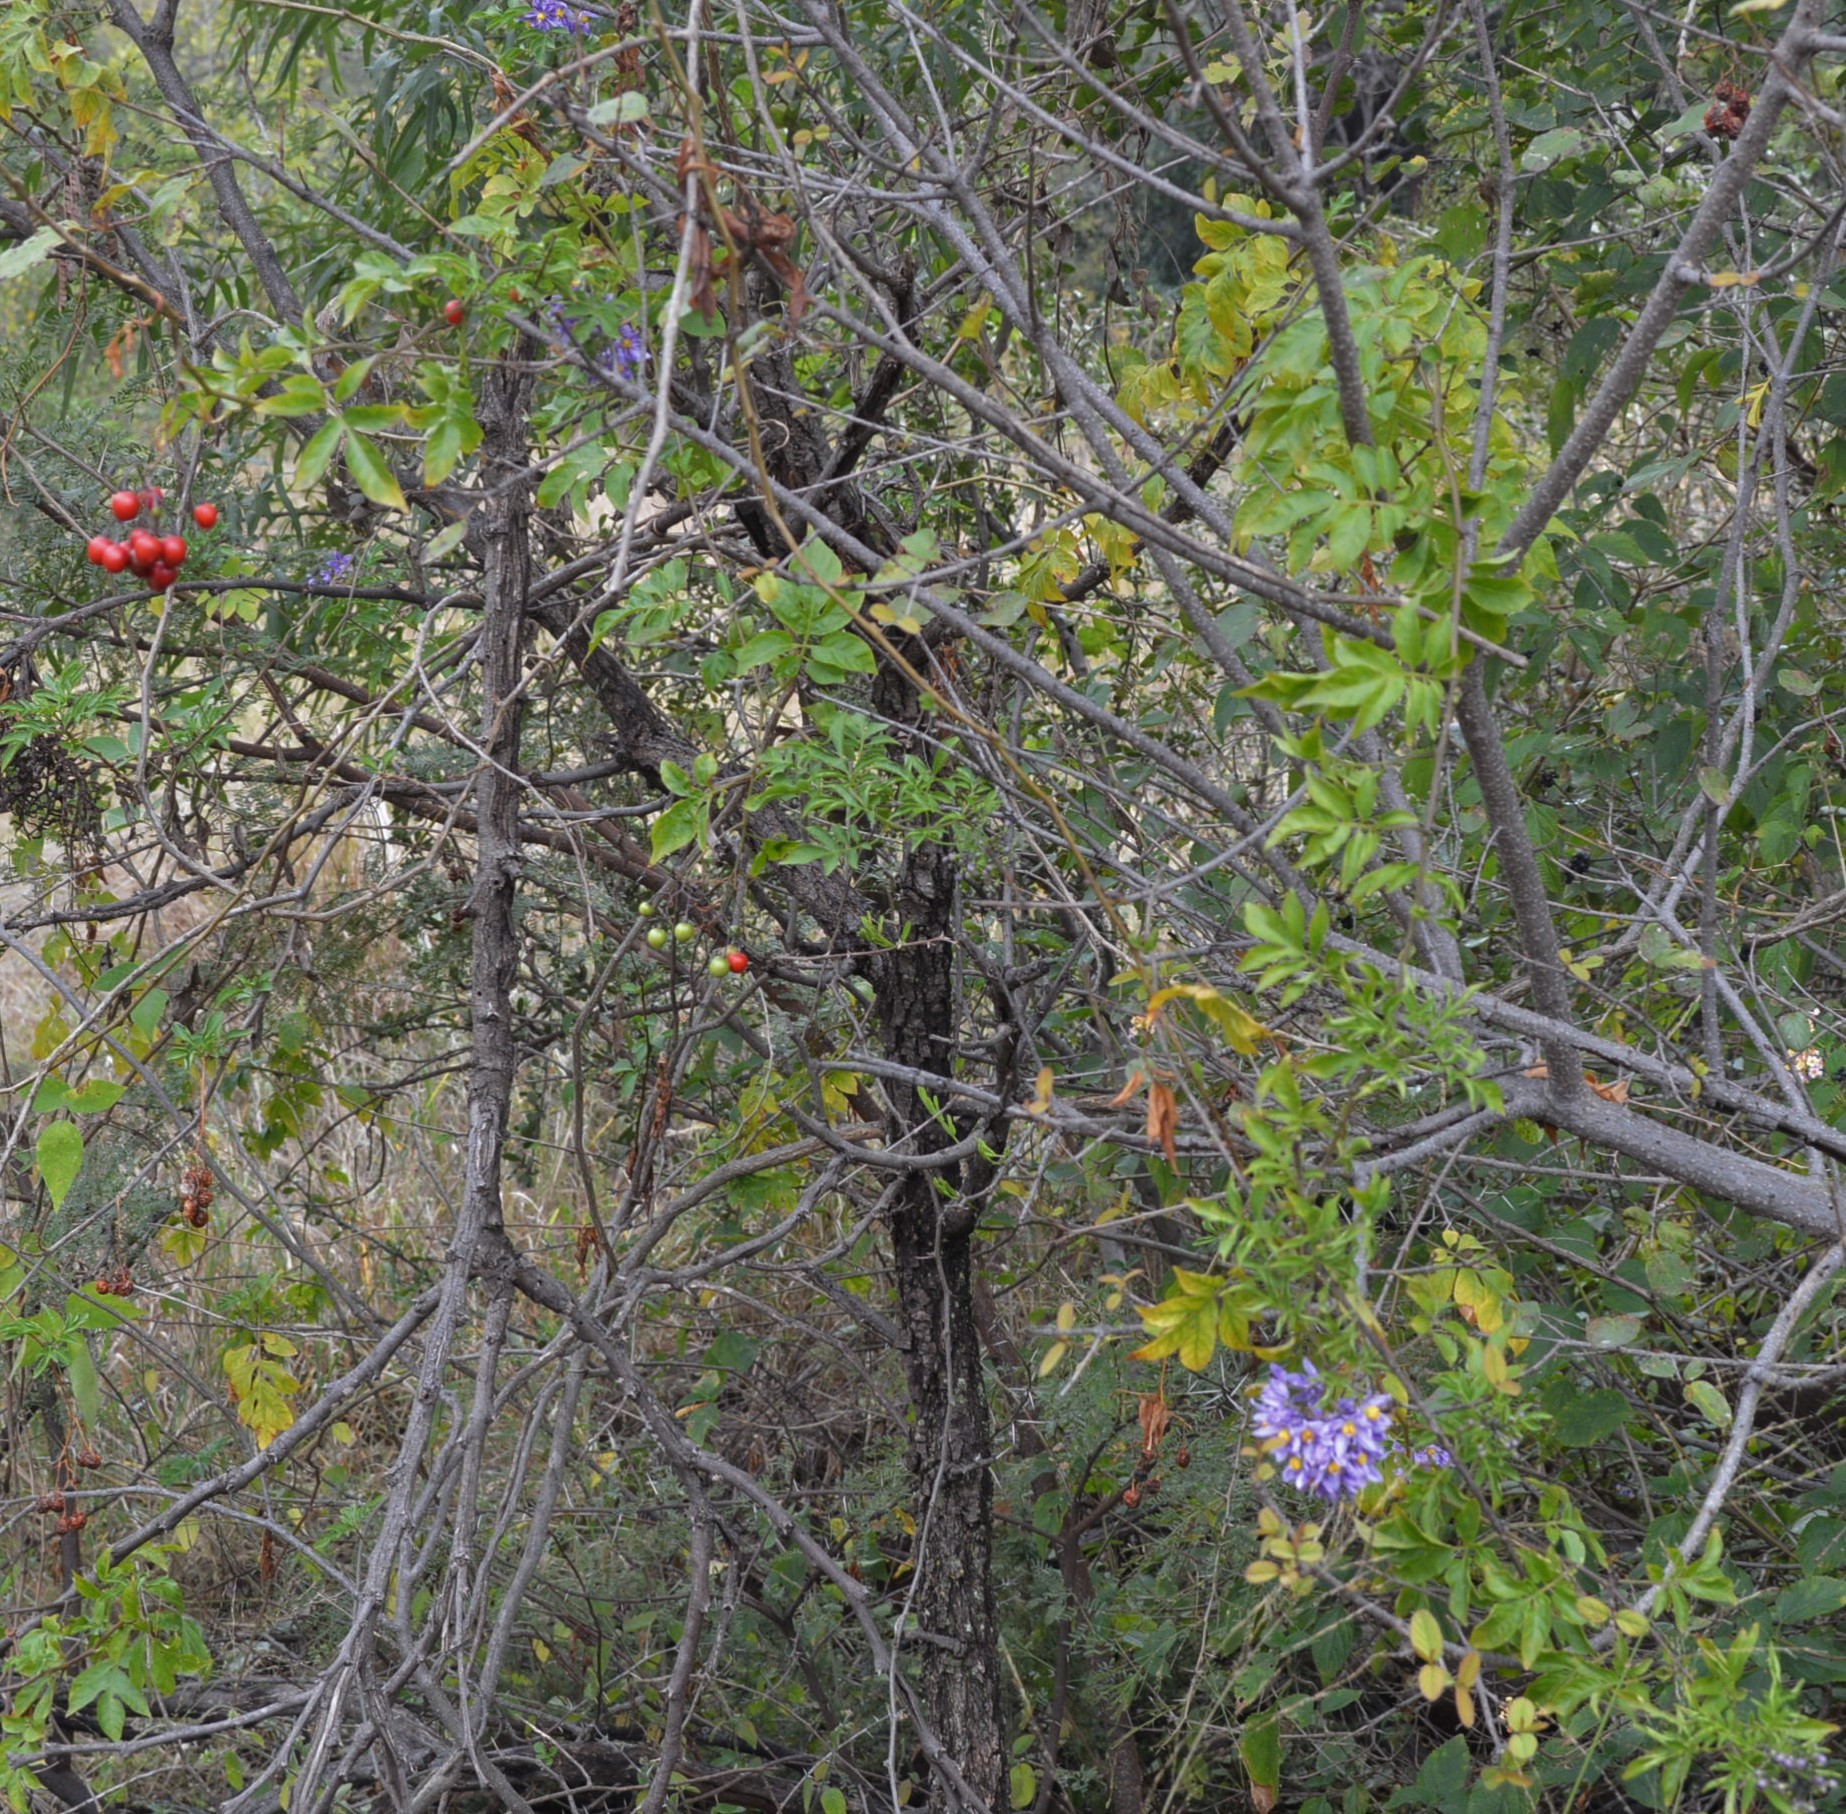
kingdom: Plantae
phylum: Tracheophyta
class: Magnoliopsida
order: Solanales
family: Solanaceae
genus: Solanum
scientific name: Solanum seaforthianum
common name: Brazilian nightshade
